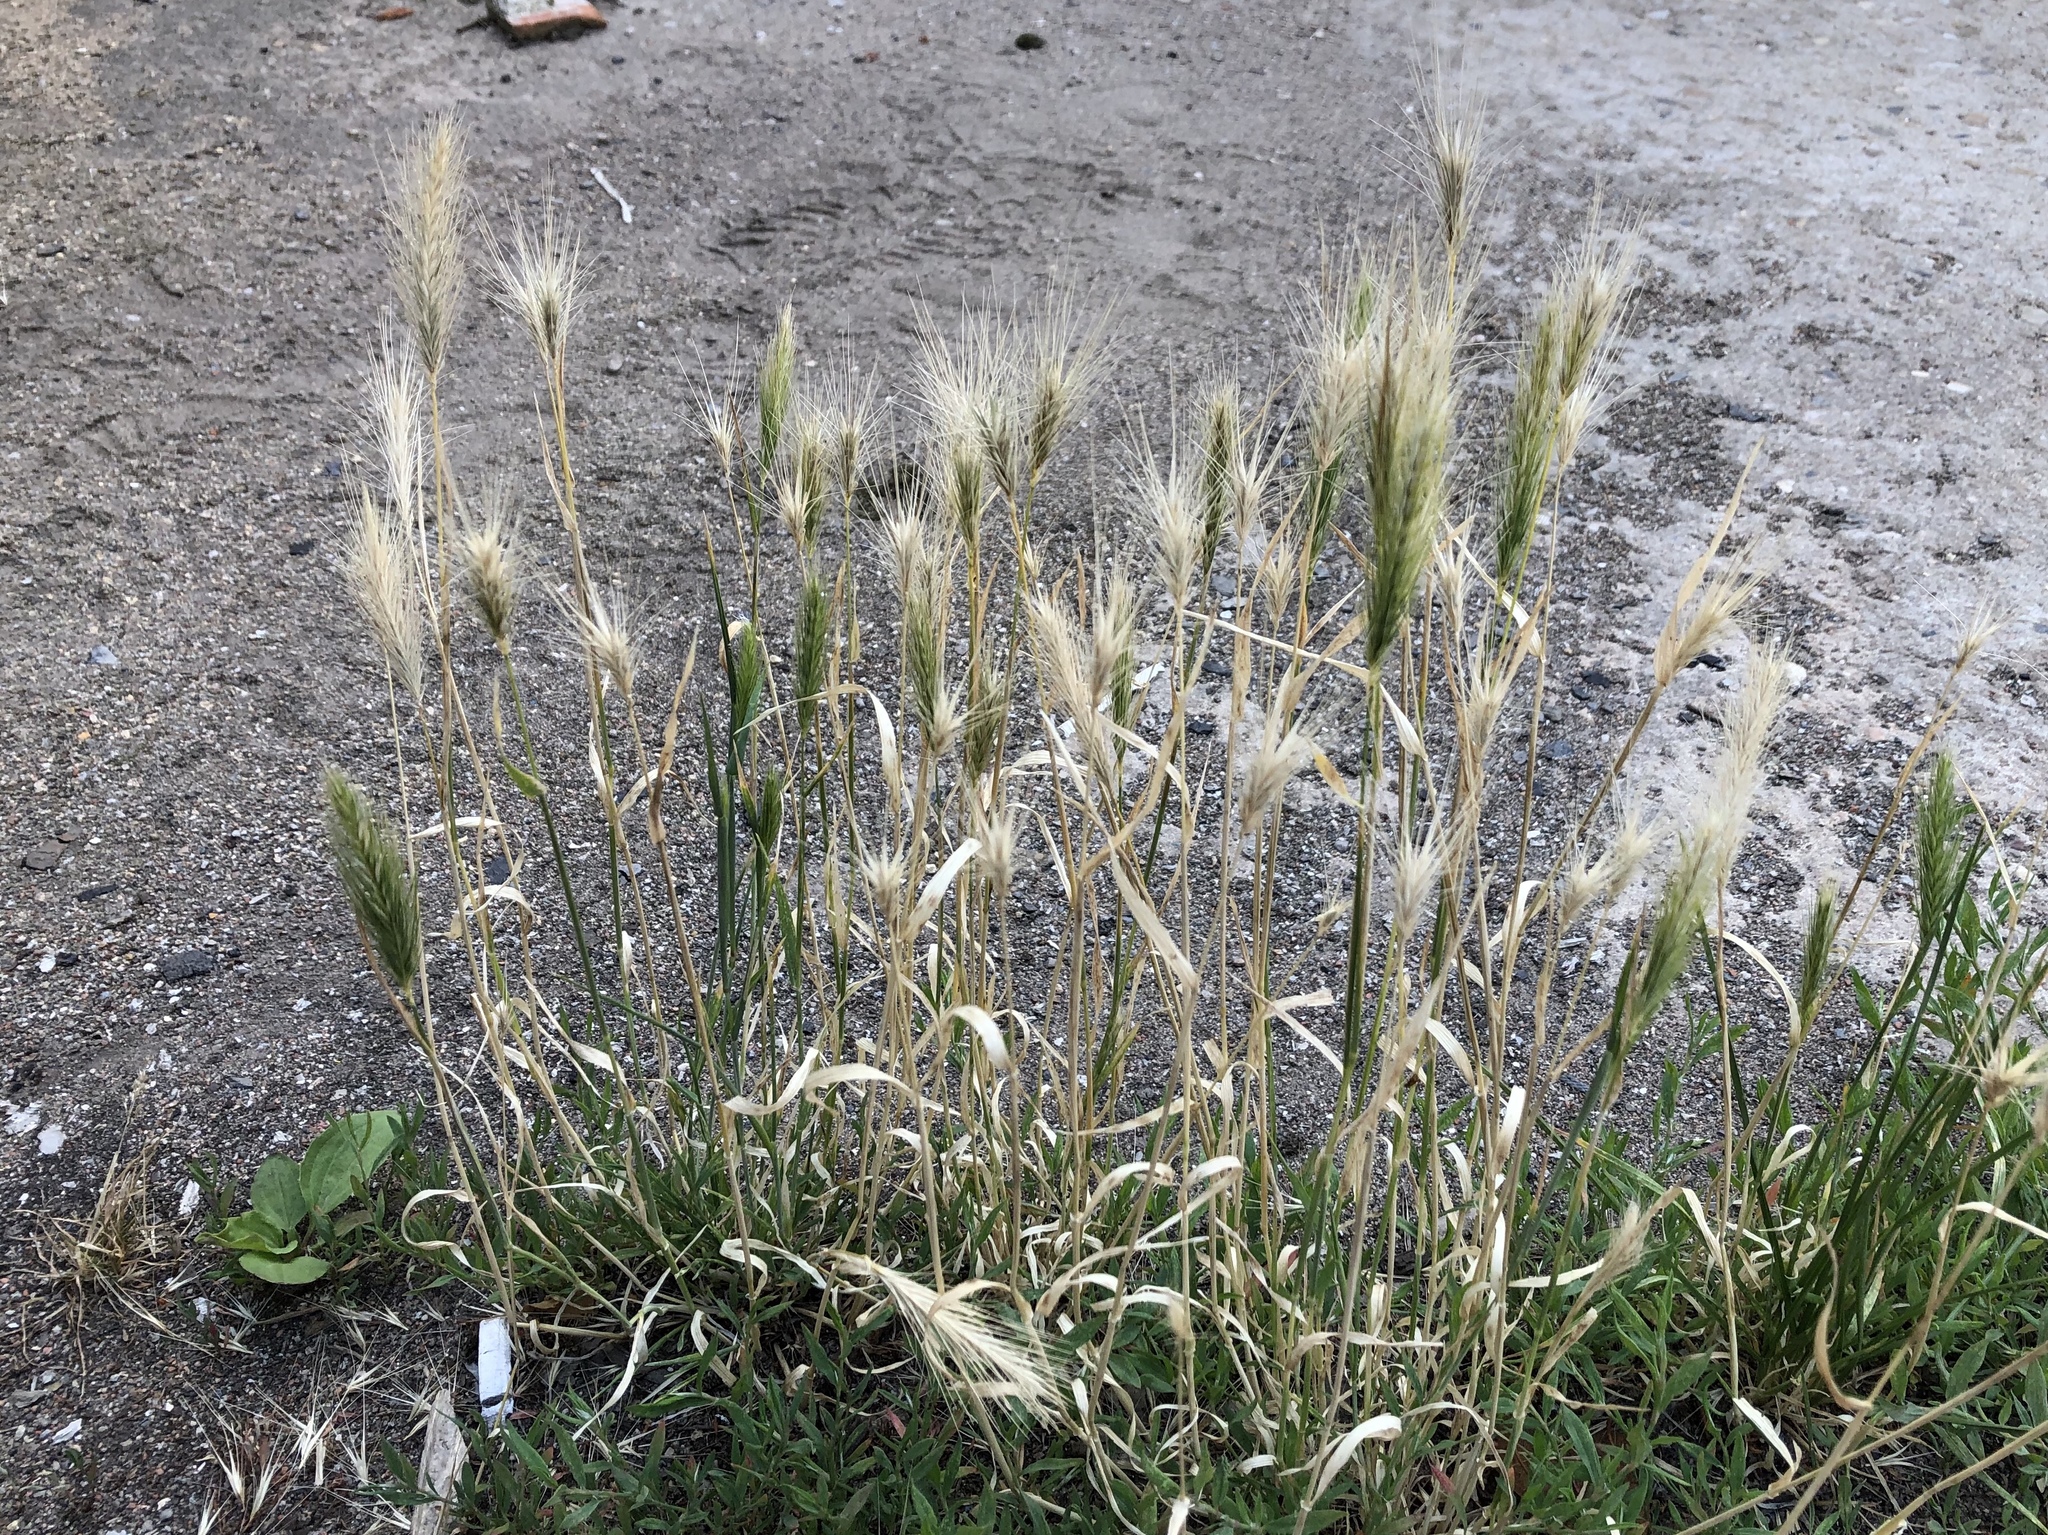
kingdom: Plantae
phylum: Tracheophyta
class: Liliopsida
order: Poales
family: Poaceae
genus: Hordeum
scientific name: Hordeum murinum
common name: Wall barley
